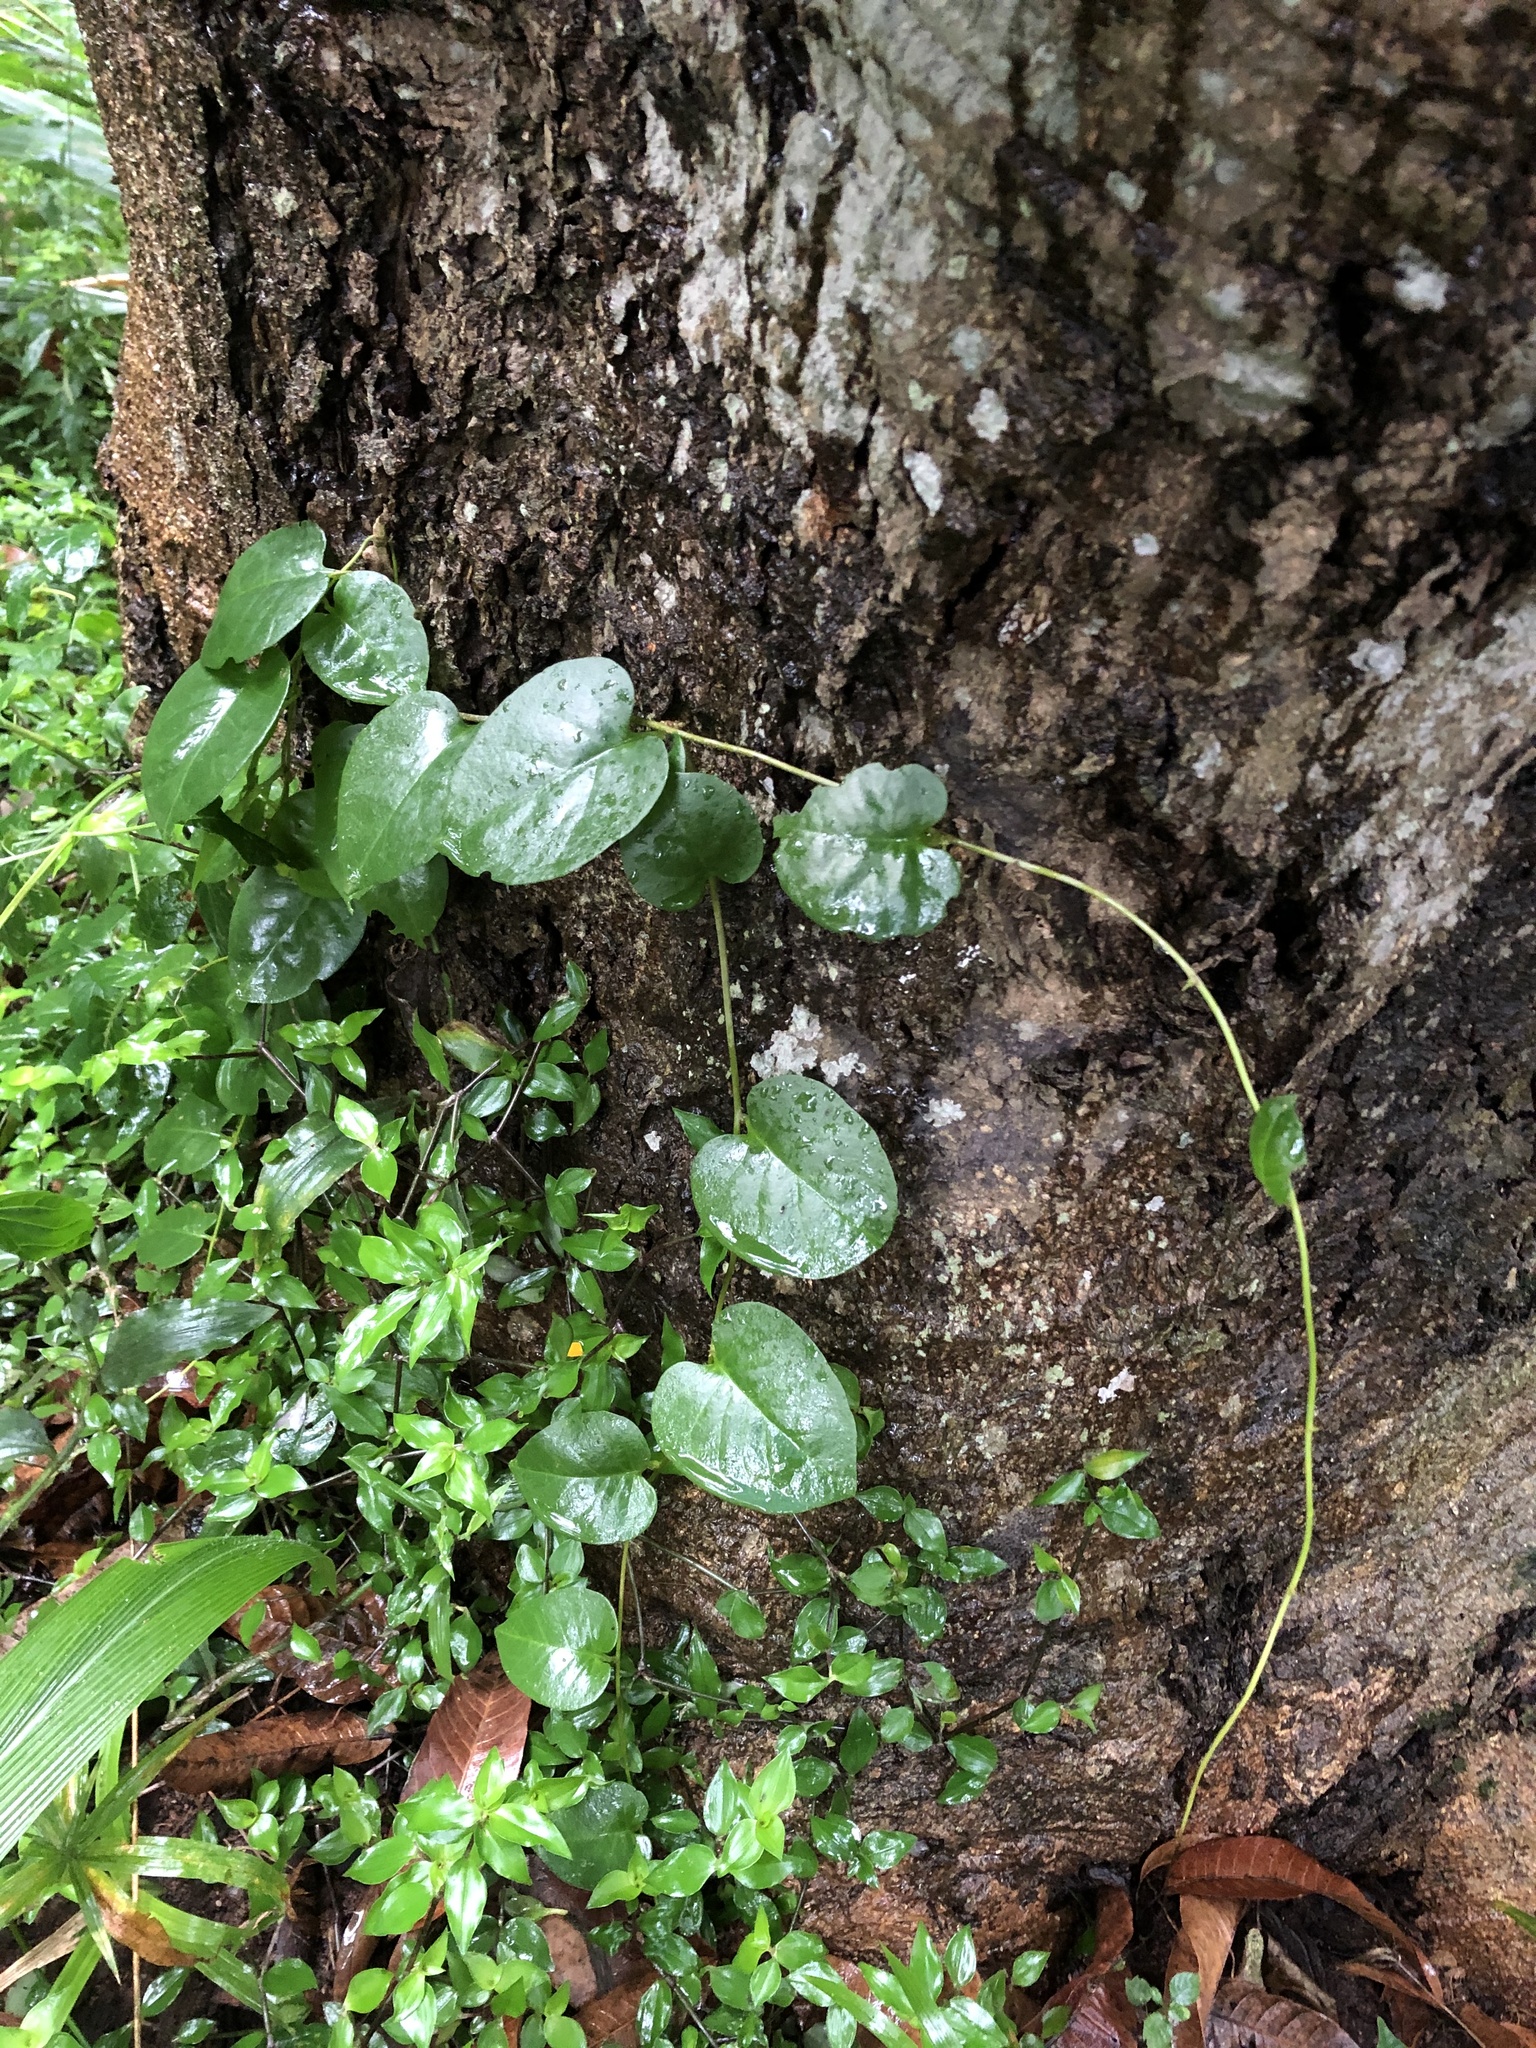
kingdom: Plantae
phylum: Tracheophyta
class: Magnoliopsida
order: Caryophyllales
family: Basellaceae
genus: Anredera
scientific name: Anredera cordifolia
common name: Heartleaf madeiravine
